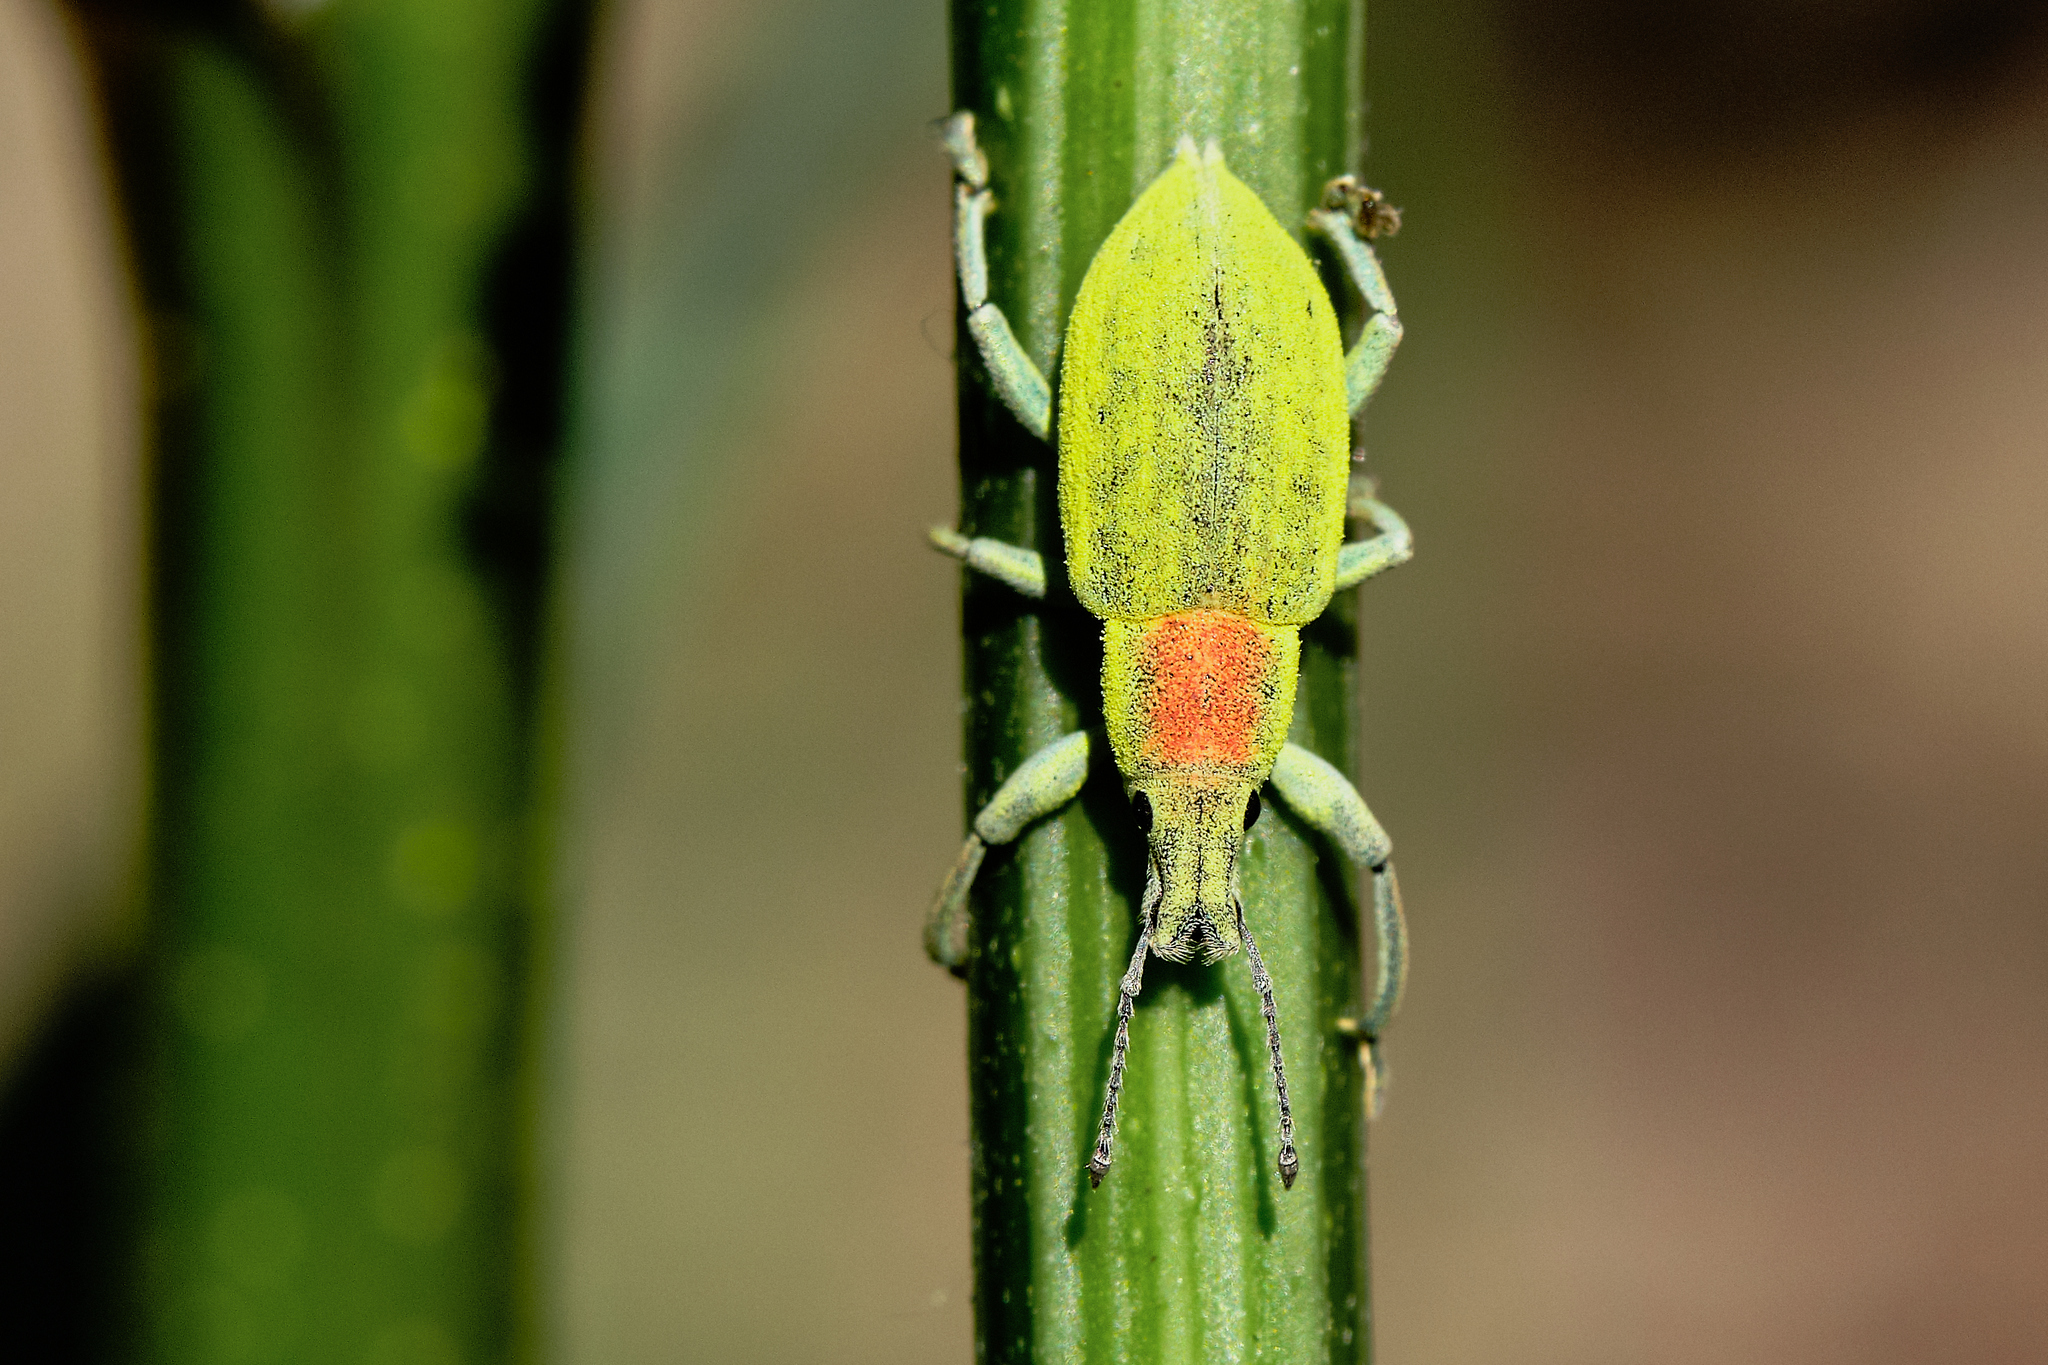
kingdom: Animalia
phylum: Arthropoda
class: Insecta
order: Coleoptera
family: Curculionidae
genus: Chlorophanus
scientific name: Chlorophanus micans
